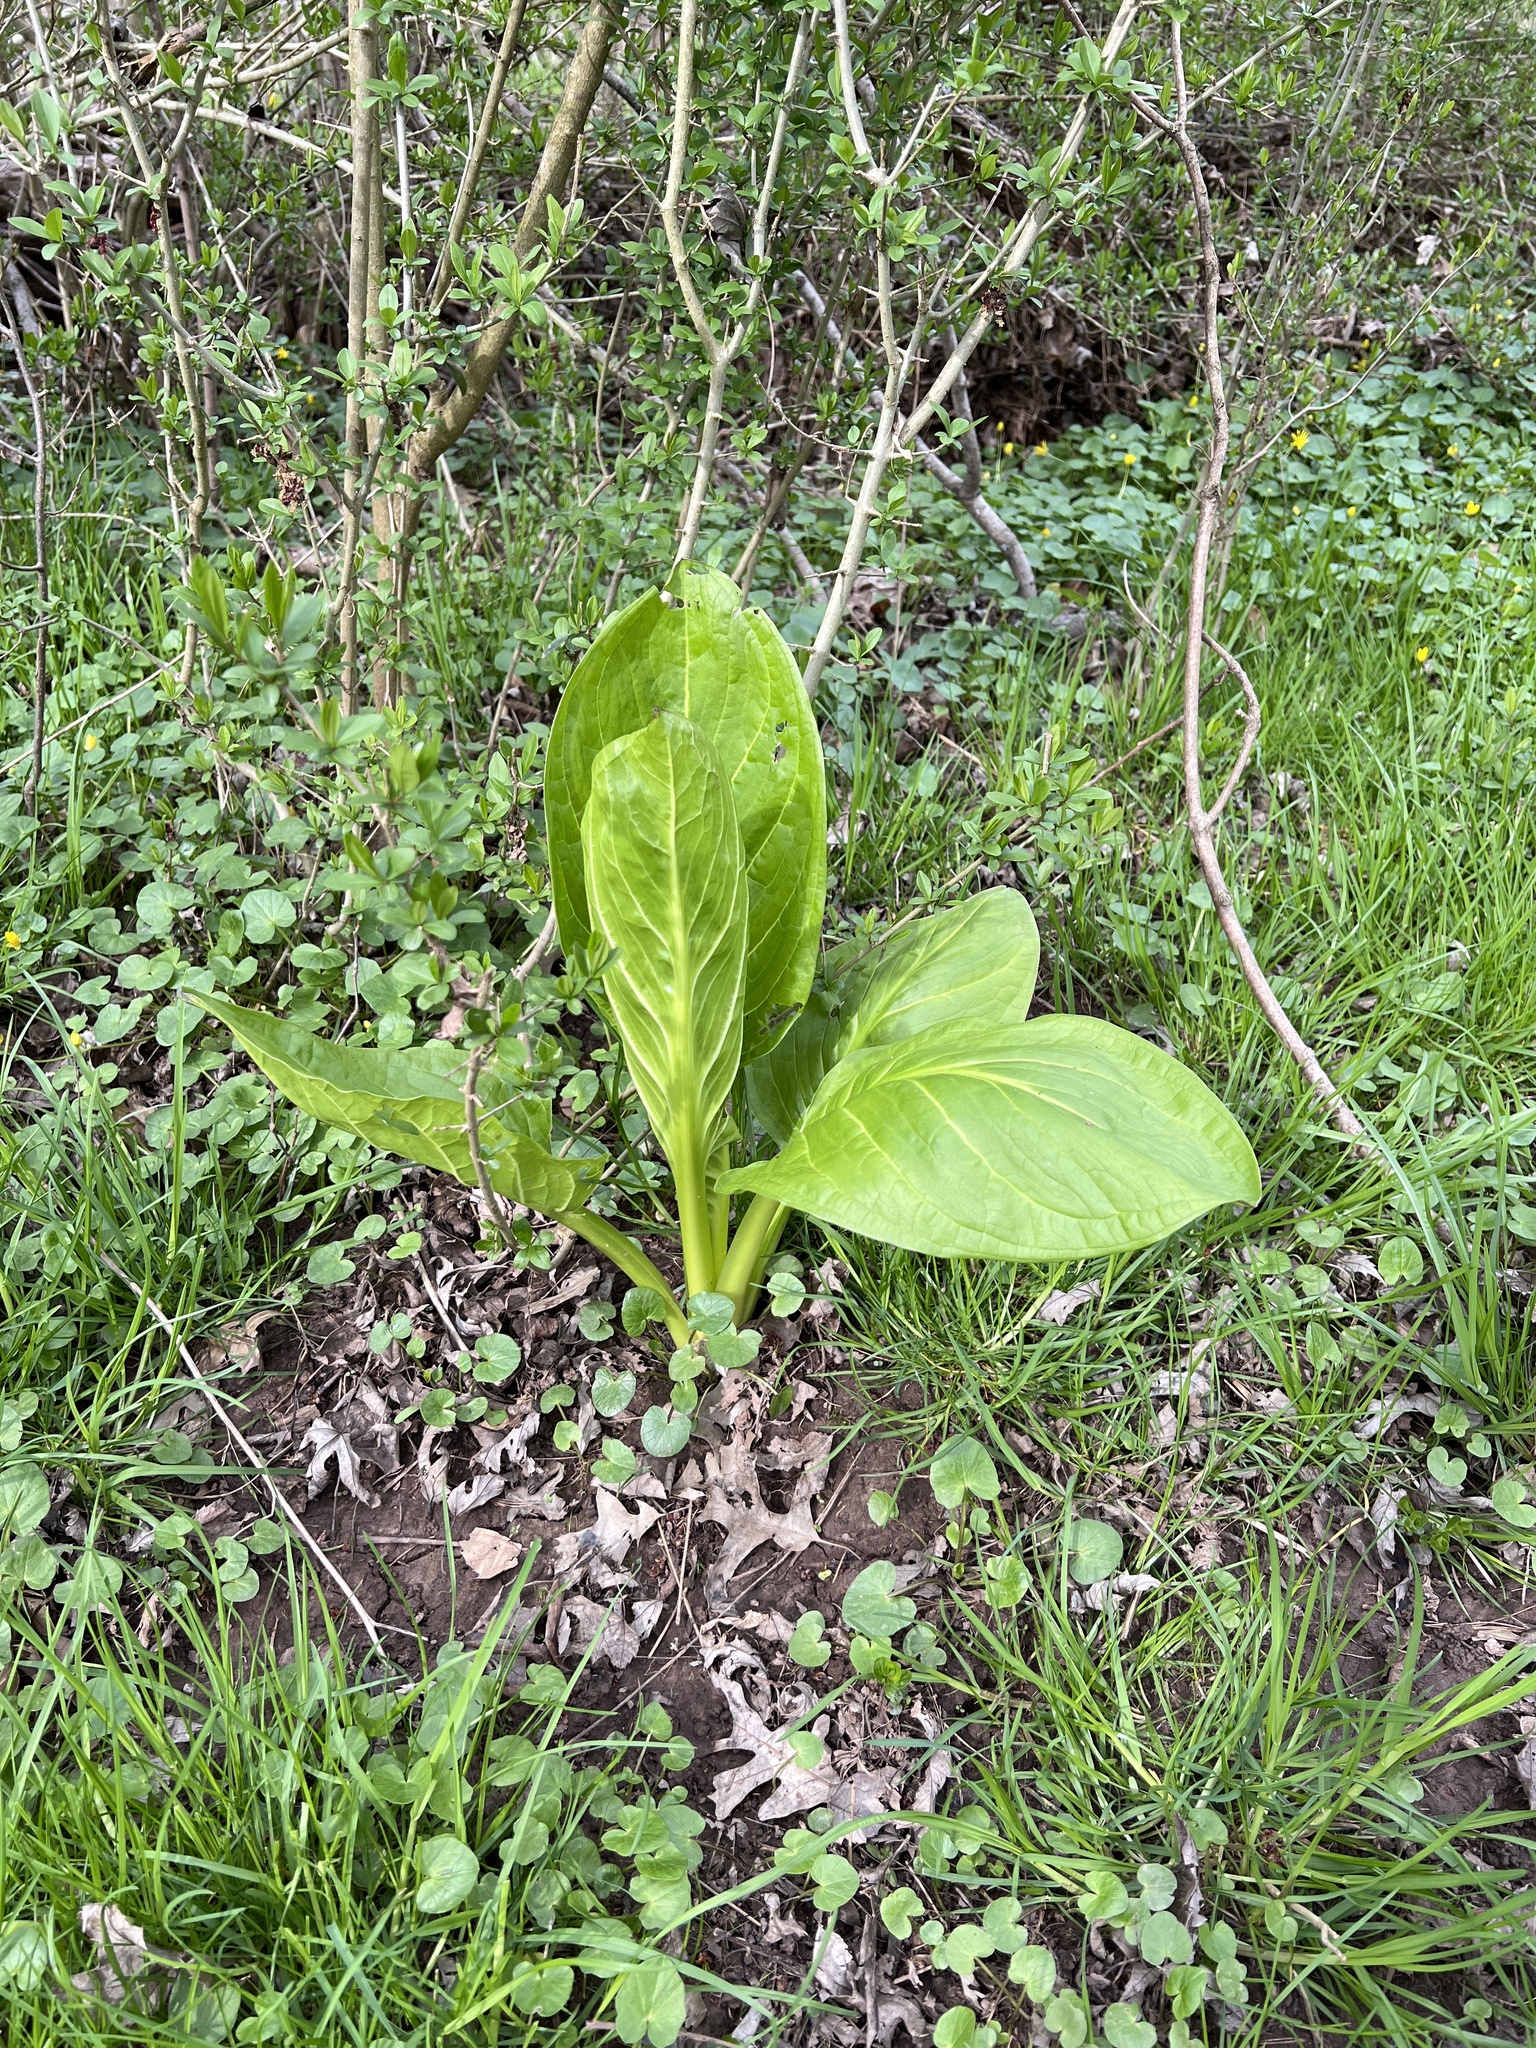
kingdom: Plantae
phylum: Tracheophyta
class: Liliopsida
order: Alismatales
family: Araceae
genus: Symplocarpus
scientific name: Symplocarpus foetidus
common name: Eastern skunk cabbage
